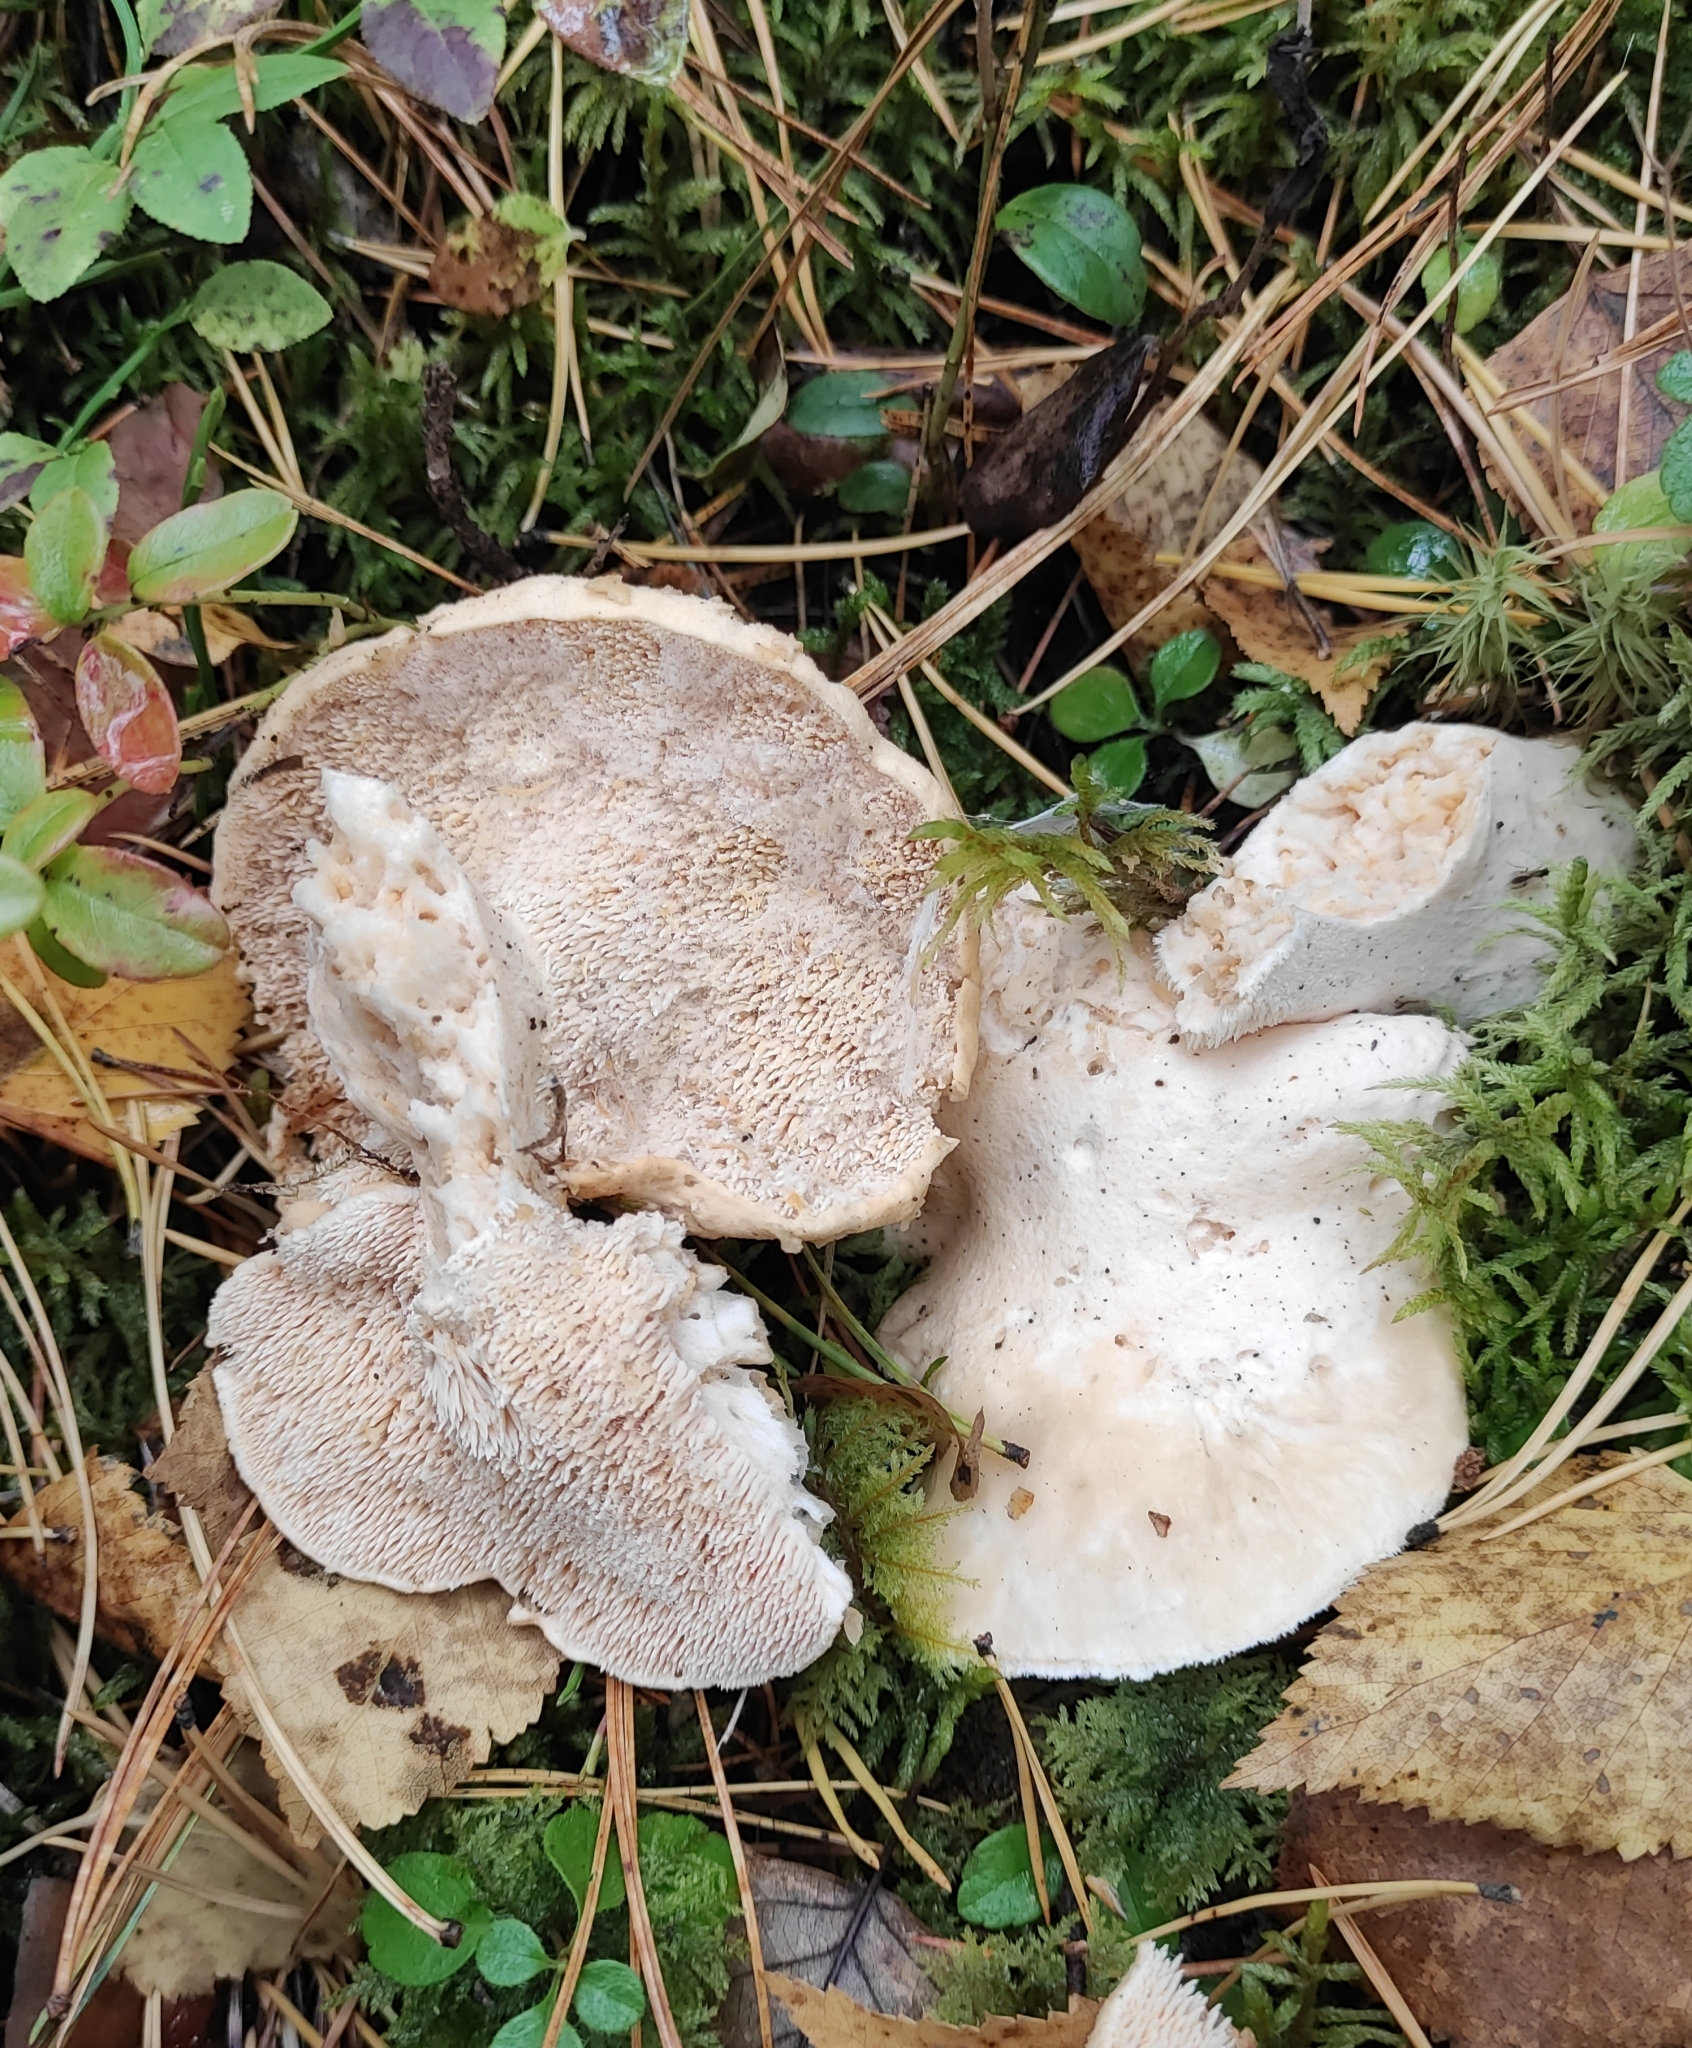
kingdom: Fungi
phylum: Basidiomycota
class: Agaricomycetes
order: Cantharellales
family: Hydnaceae
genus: Hydnum
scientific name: Hydnum repandum
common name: Wood hedgehog
